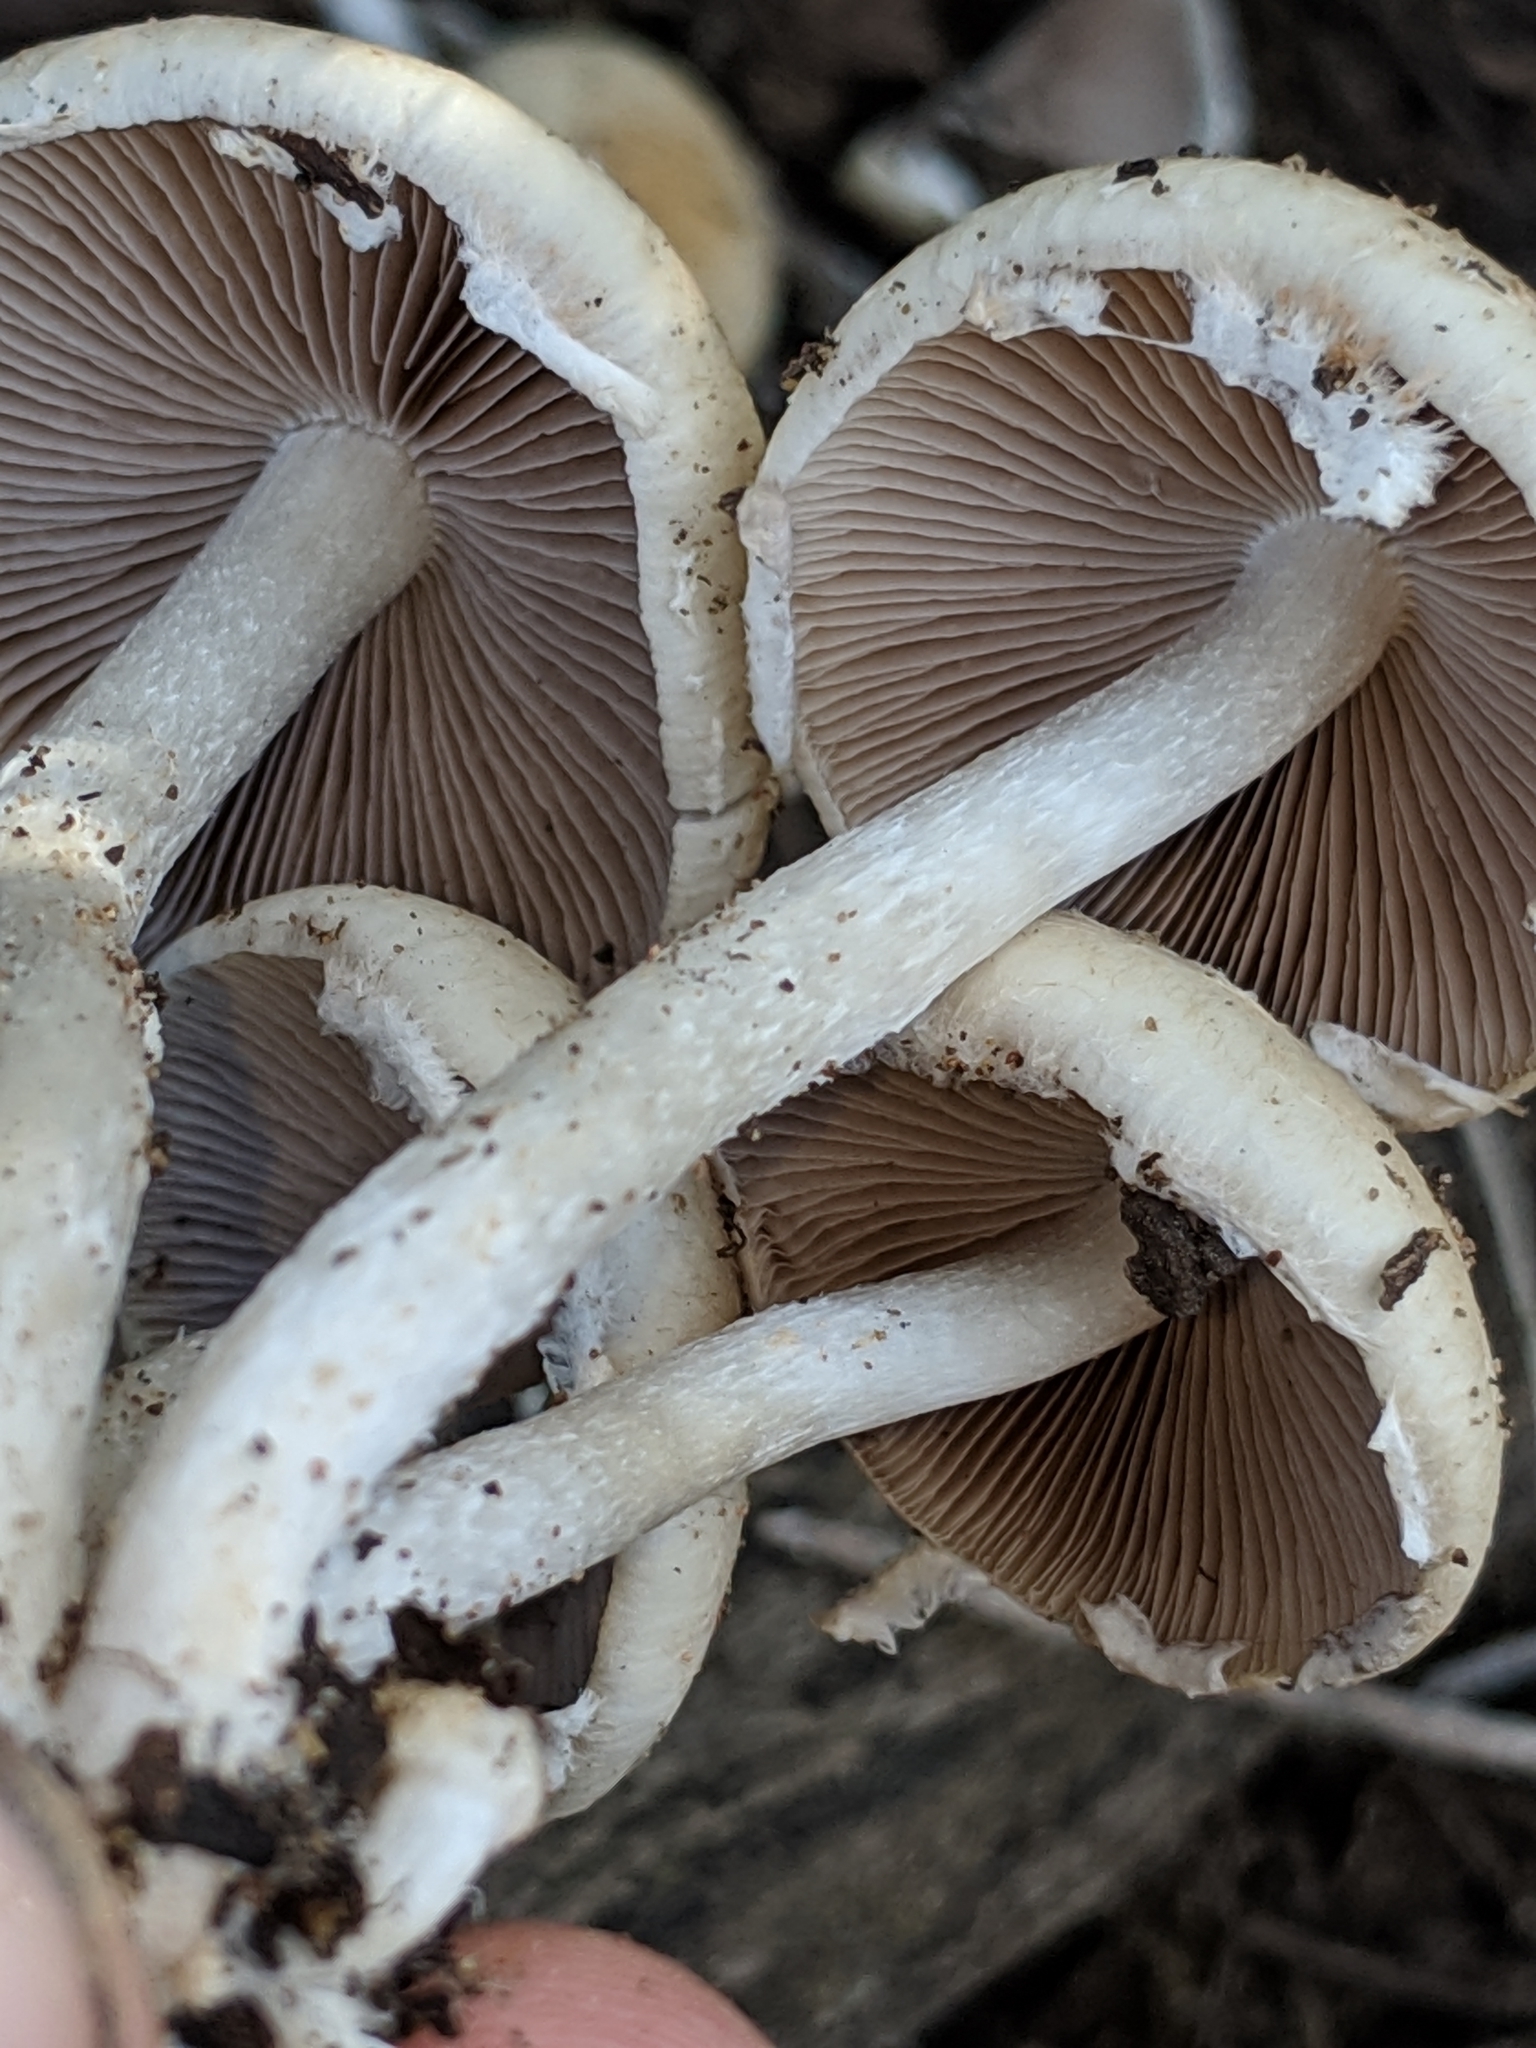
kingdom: Fungi
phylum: Basidiomycota
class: Agaricomycetes
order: Agaricales
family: Psathyrellaceae
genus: Candolleomyces
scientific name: Candolleomyces candolleanus
